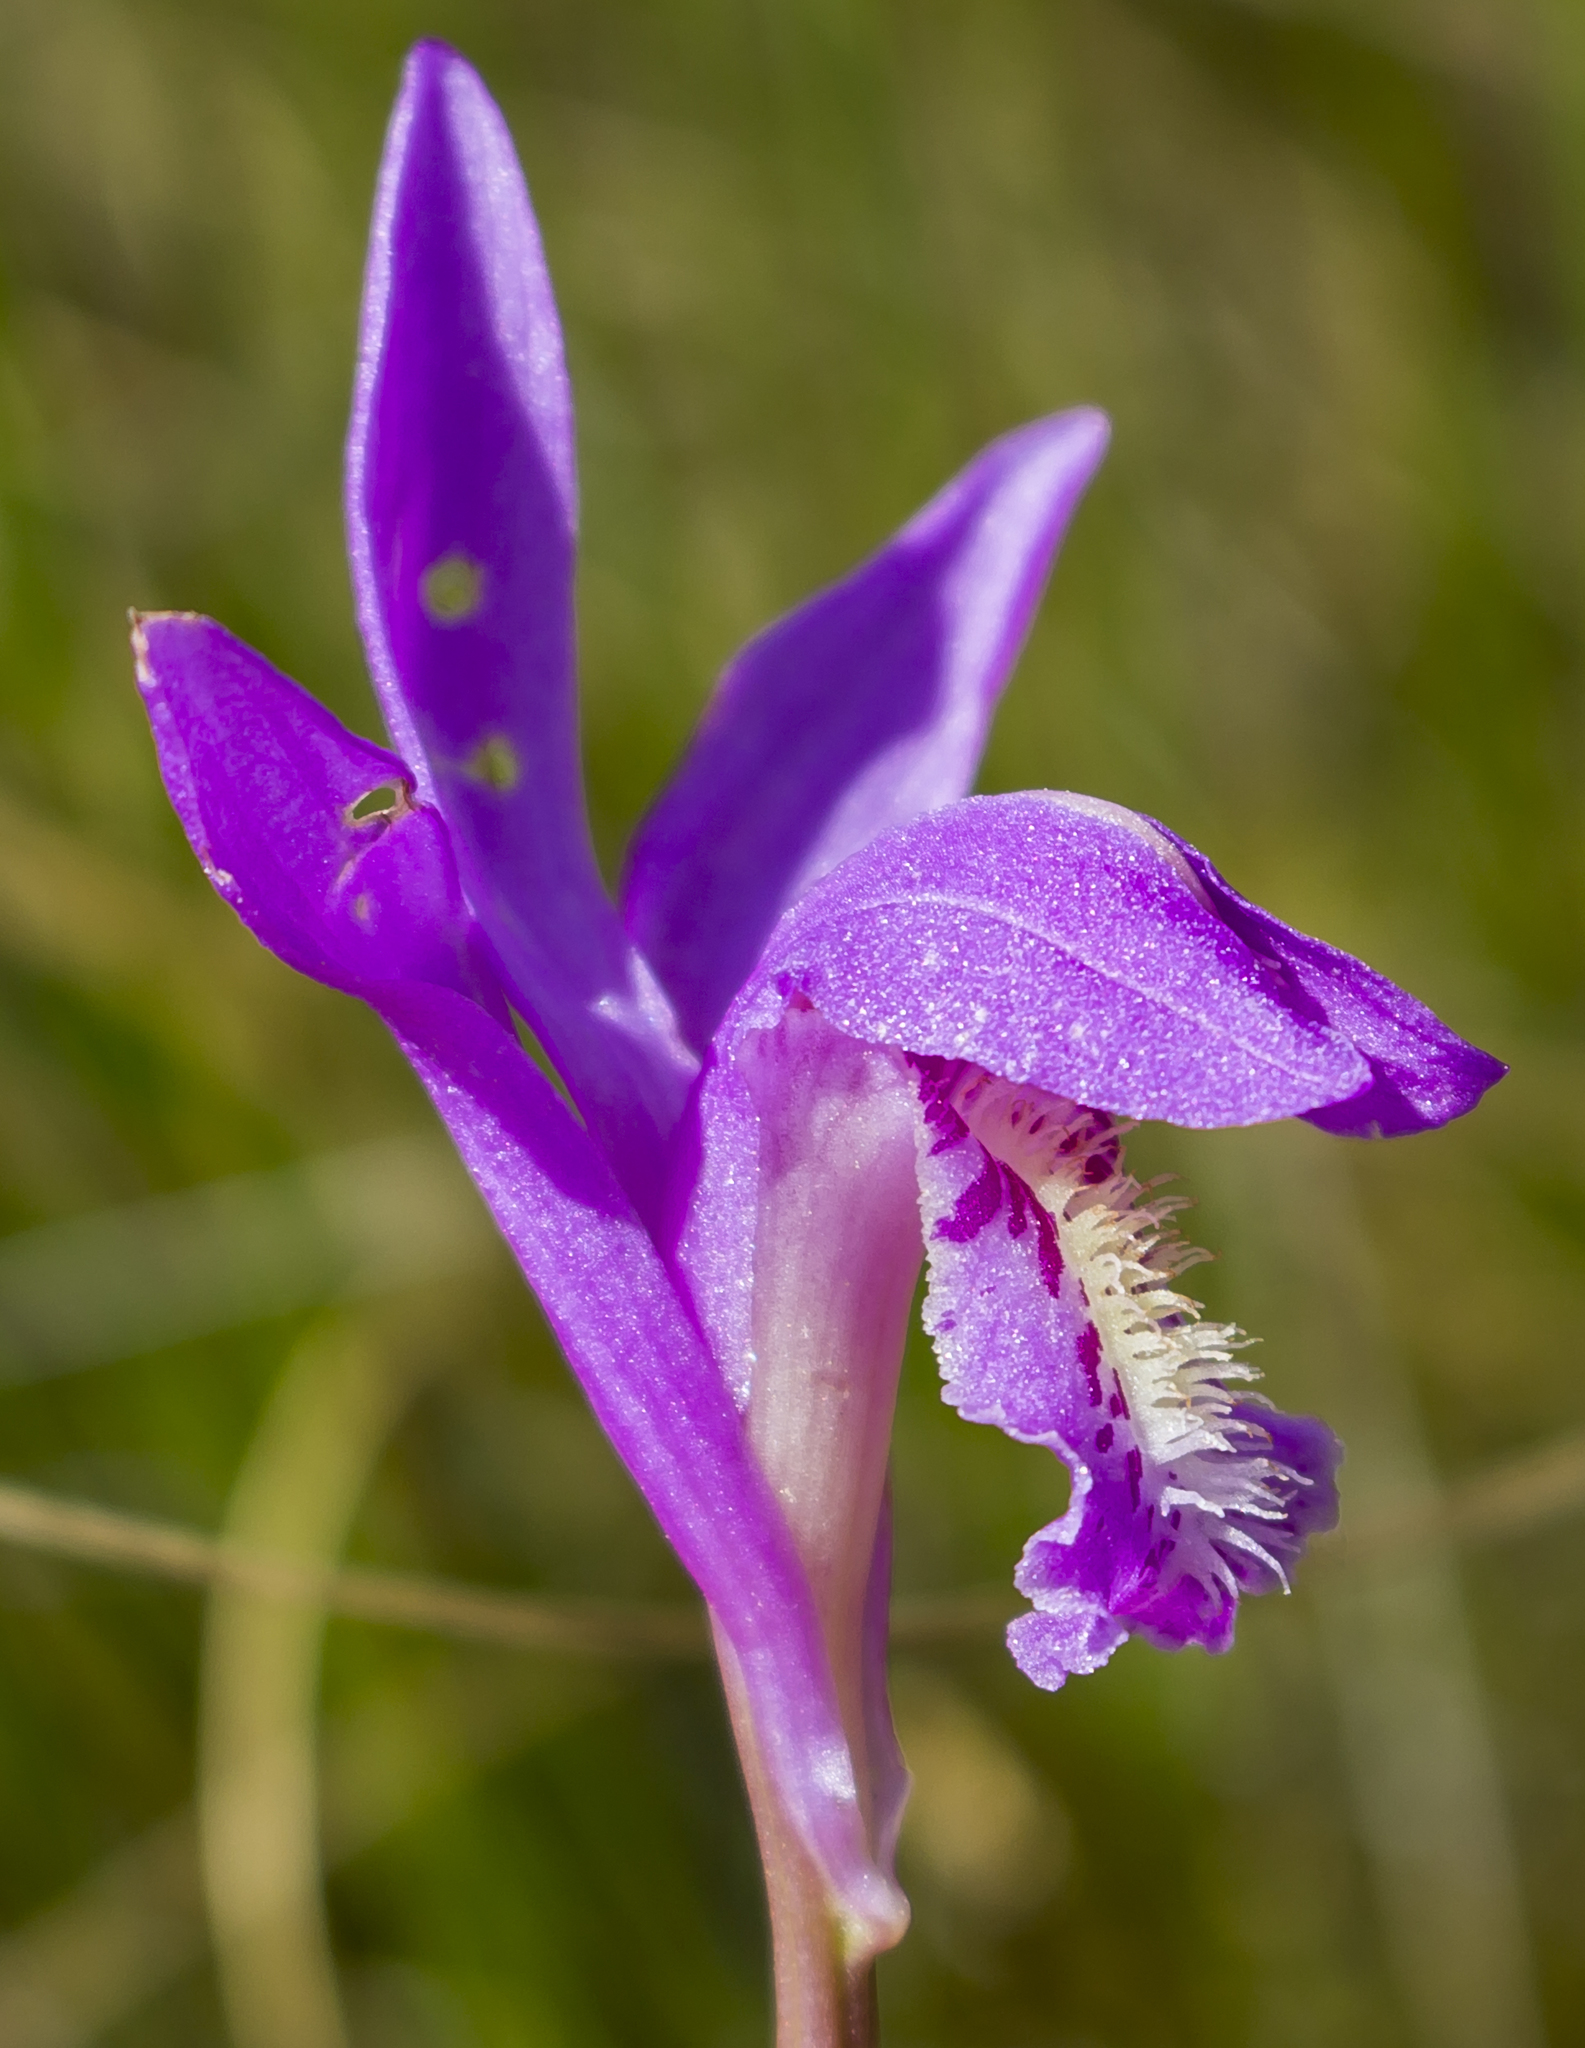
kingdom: Plantae
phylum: Tracheophyta
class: Liliopsida
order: Asparagales
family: Orchidaceae
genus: Arethusa
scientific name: Arethusa bulbosa
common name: Arethusa
